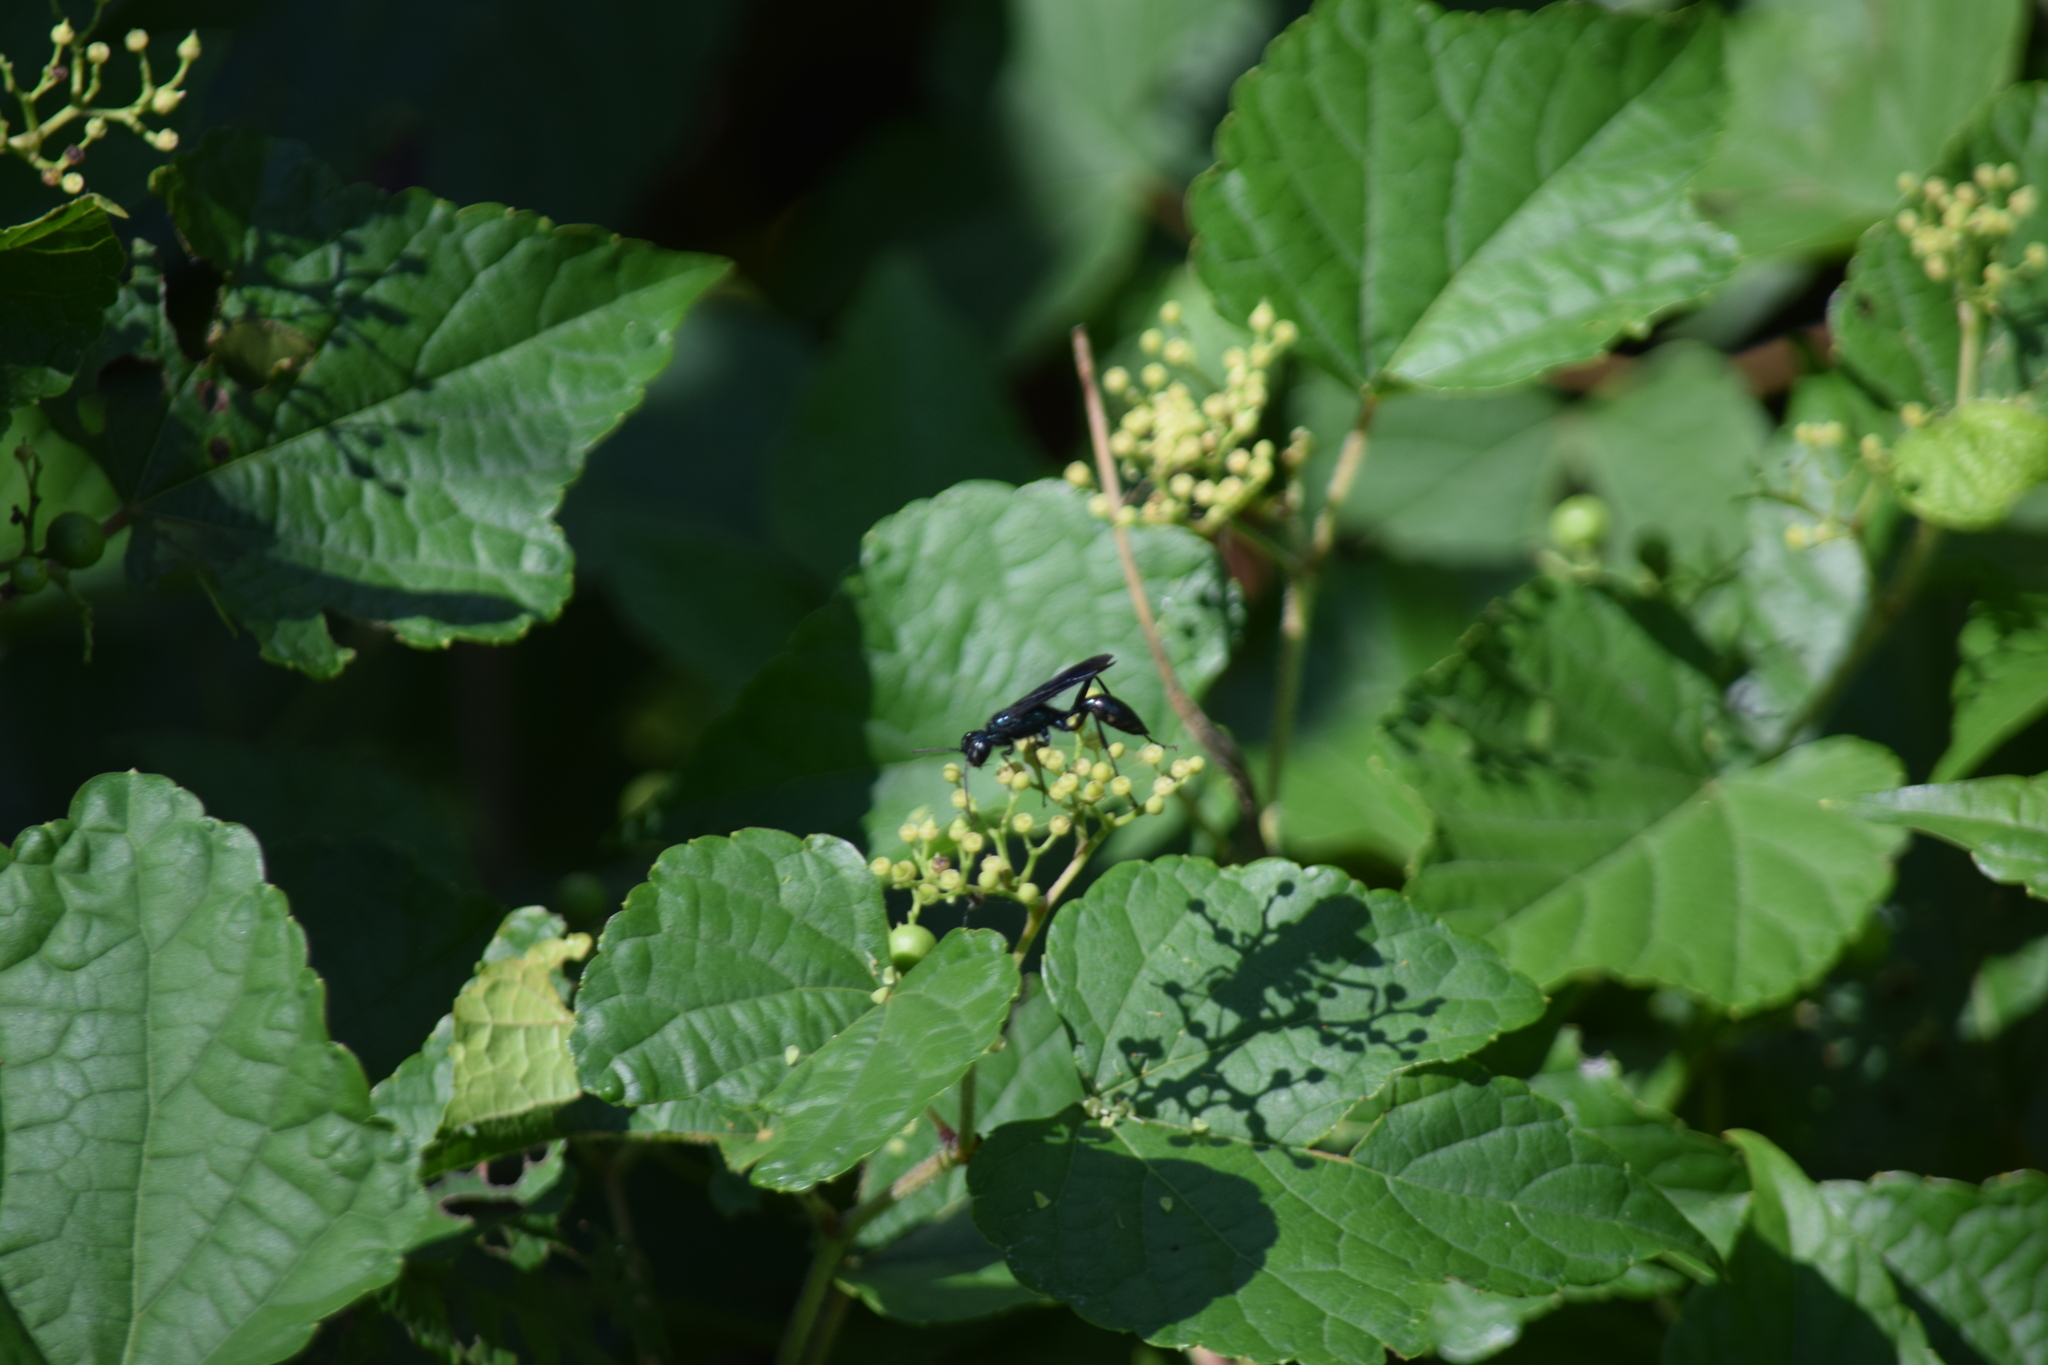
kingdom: Animalia
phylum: Arthropoda
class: Insecta
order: Hymenoptera
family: Sphecidae
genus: Chalybion
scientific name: Chalybion californicum
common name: Mud dauber
